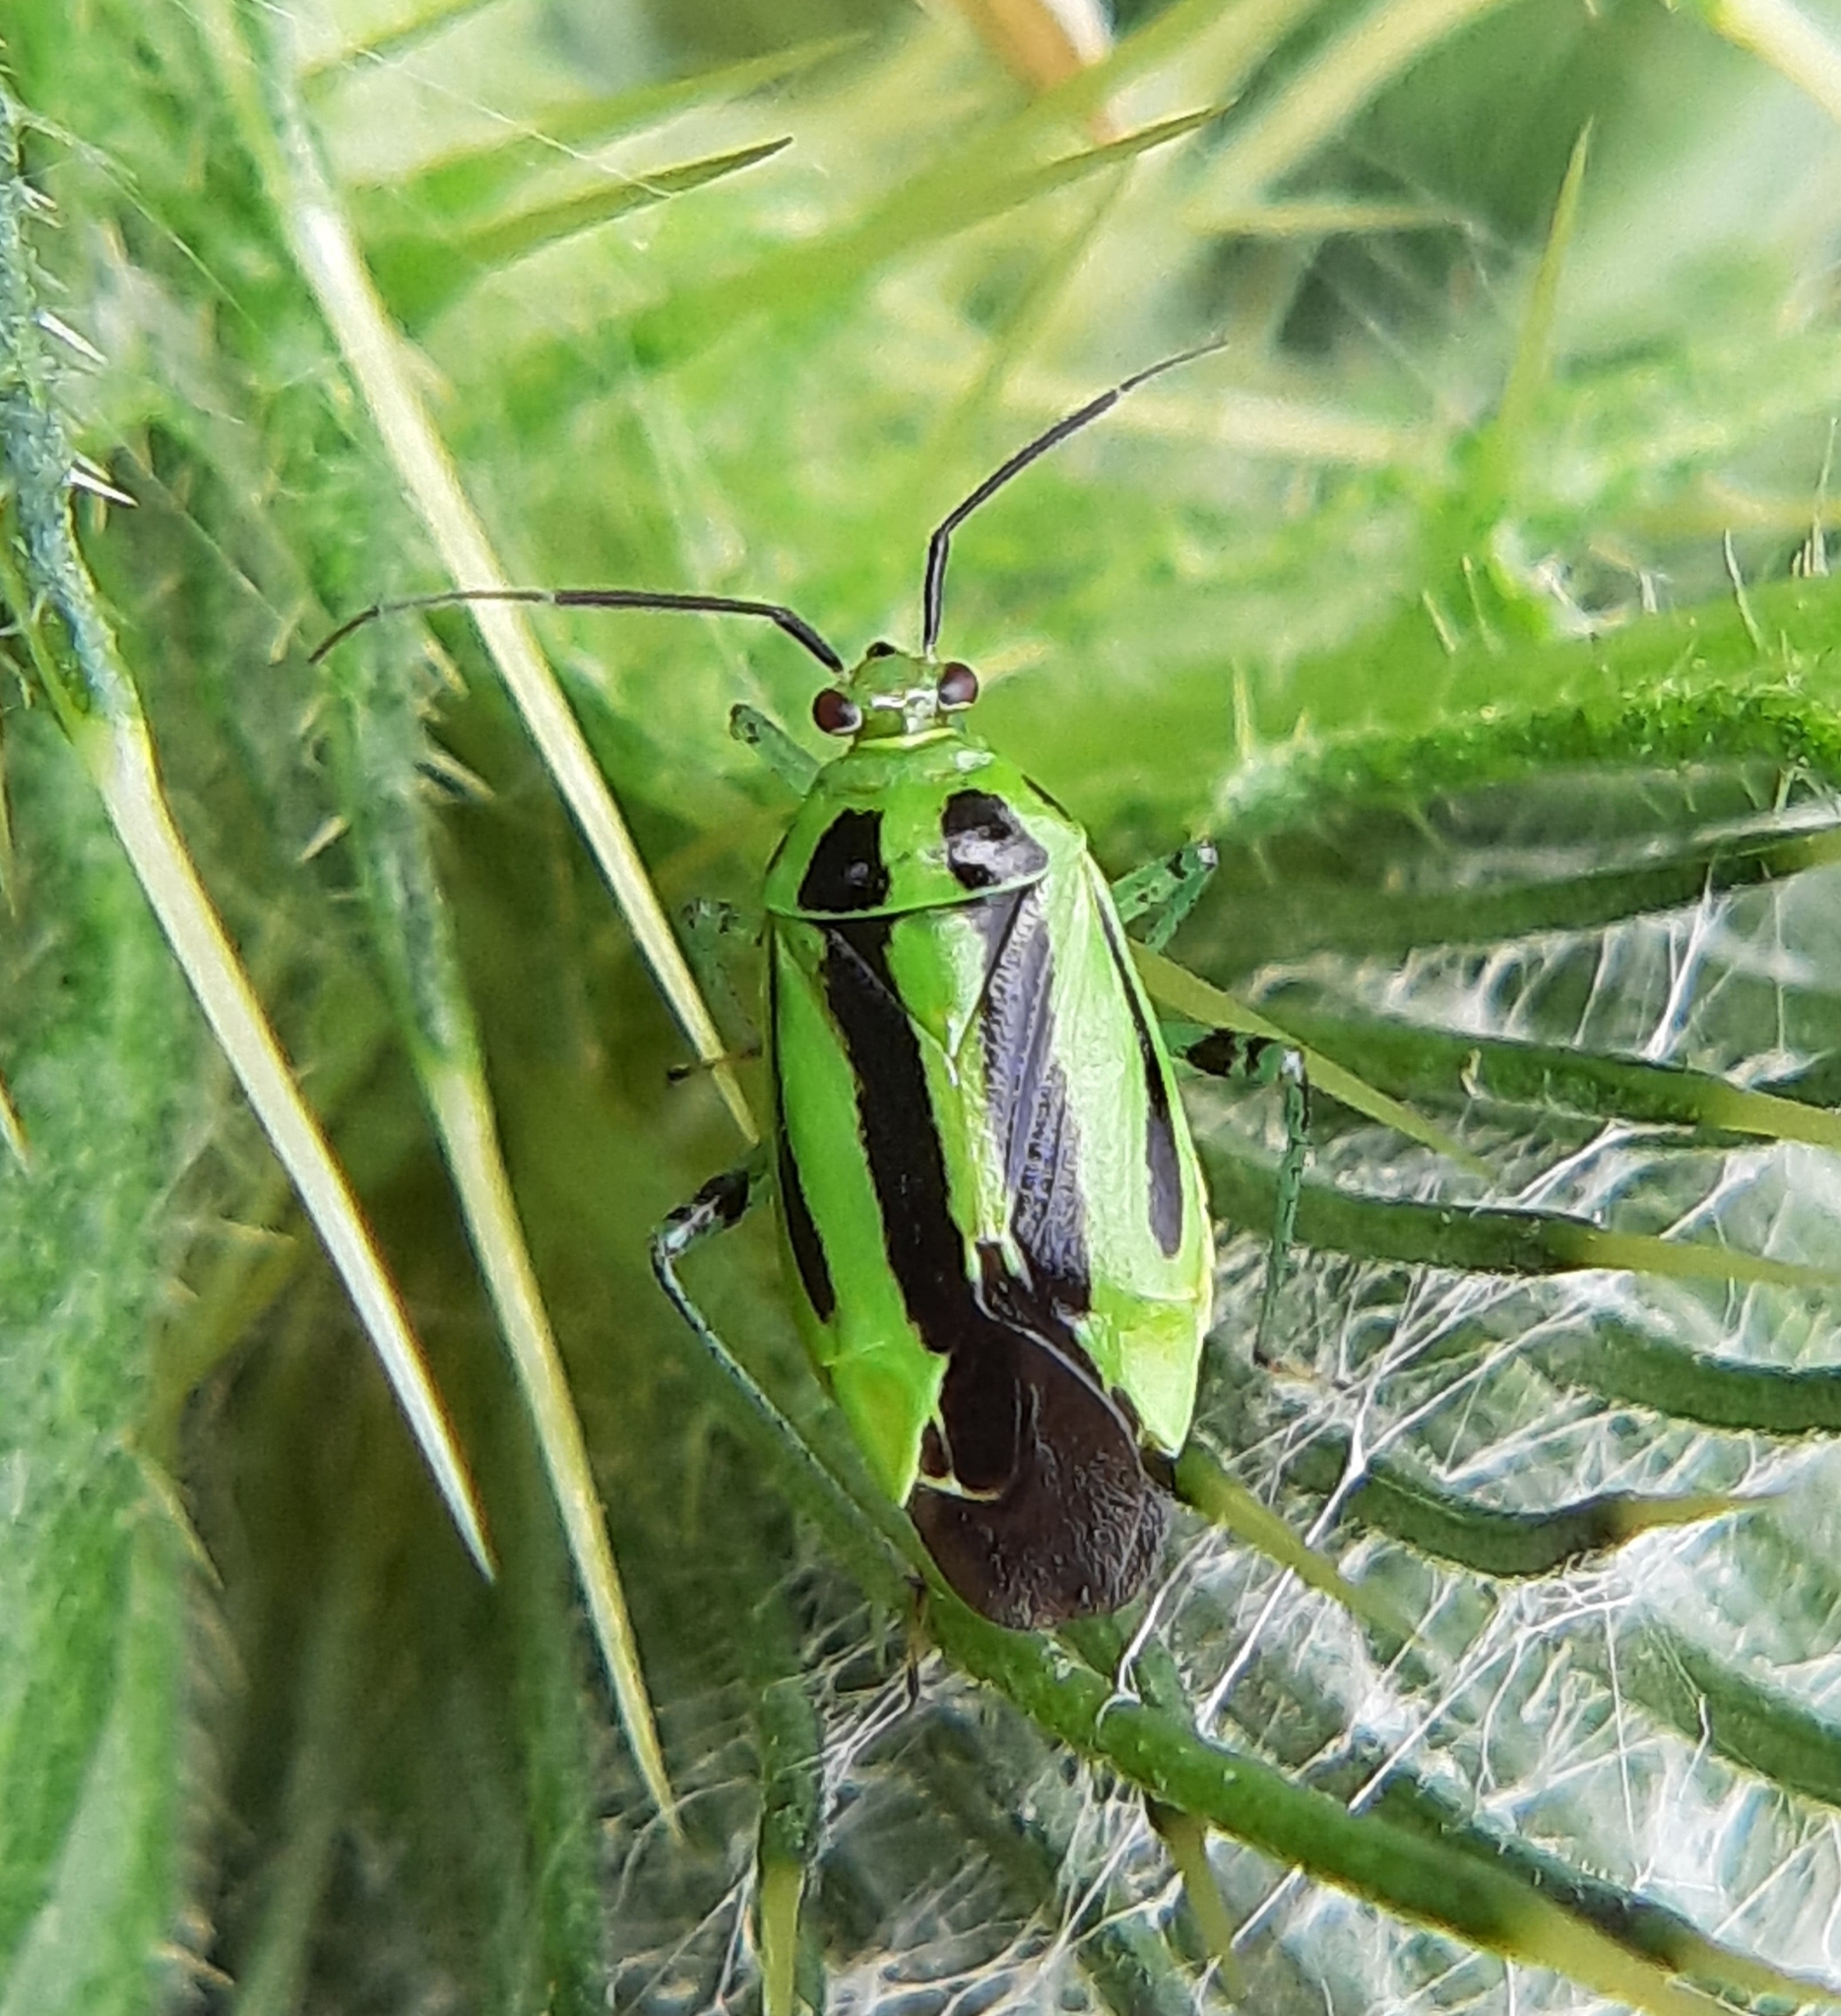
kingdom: Animalia
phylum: Arthropoda
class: Insecta
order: Hemiptera
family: Miridae
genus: Poecilocapsus
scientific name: Poecilocapsus lineatus
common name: Four-lined plant bug
